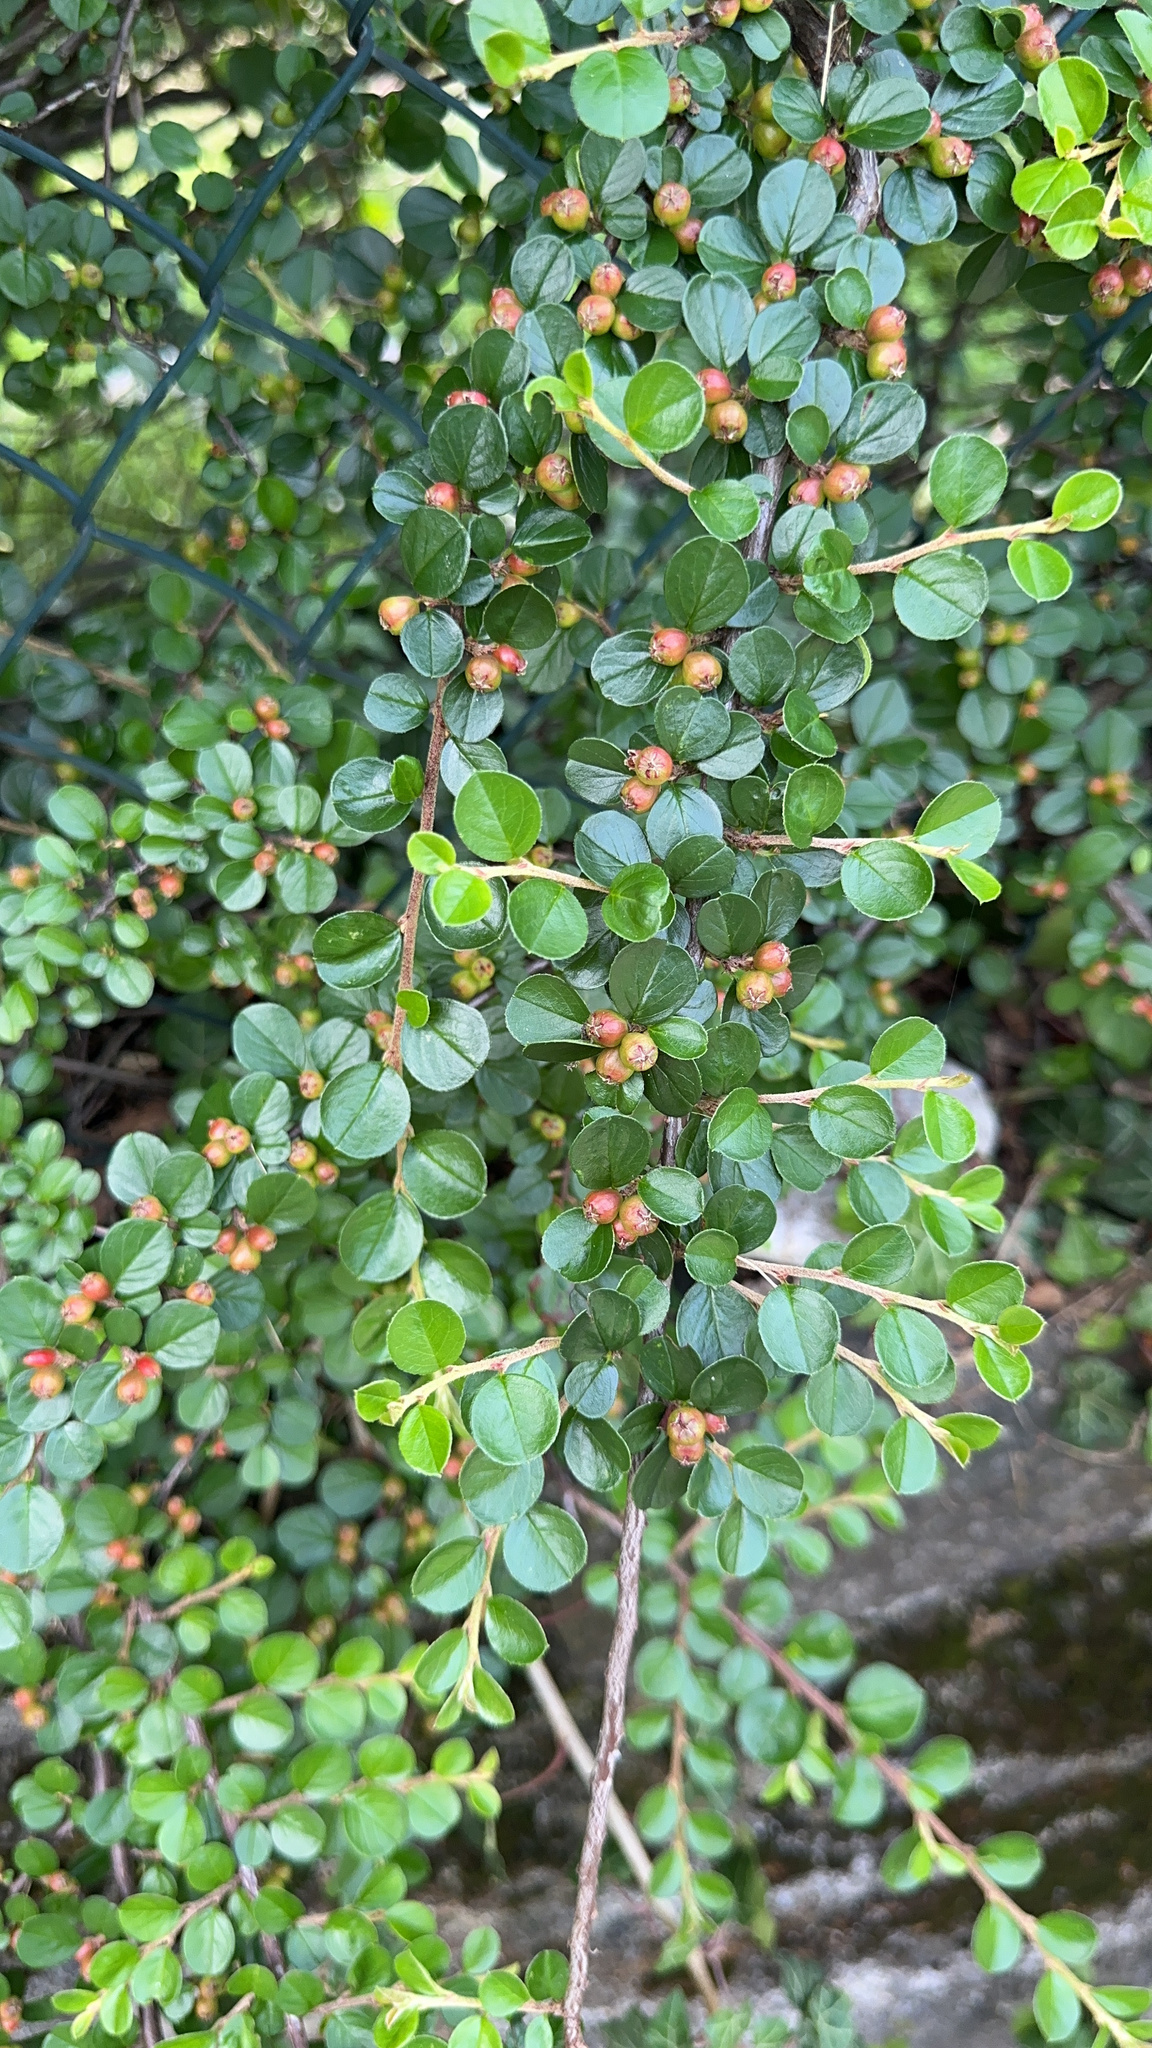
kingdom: Plantae
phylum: Tracheophyta
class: Magnoliopsida
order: Rosales
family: Rosaceae
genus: Cotoneaster
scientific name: Cotoneaster hjelmqvistii
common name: Hjelmqvist's cotoneaster
